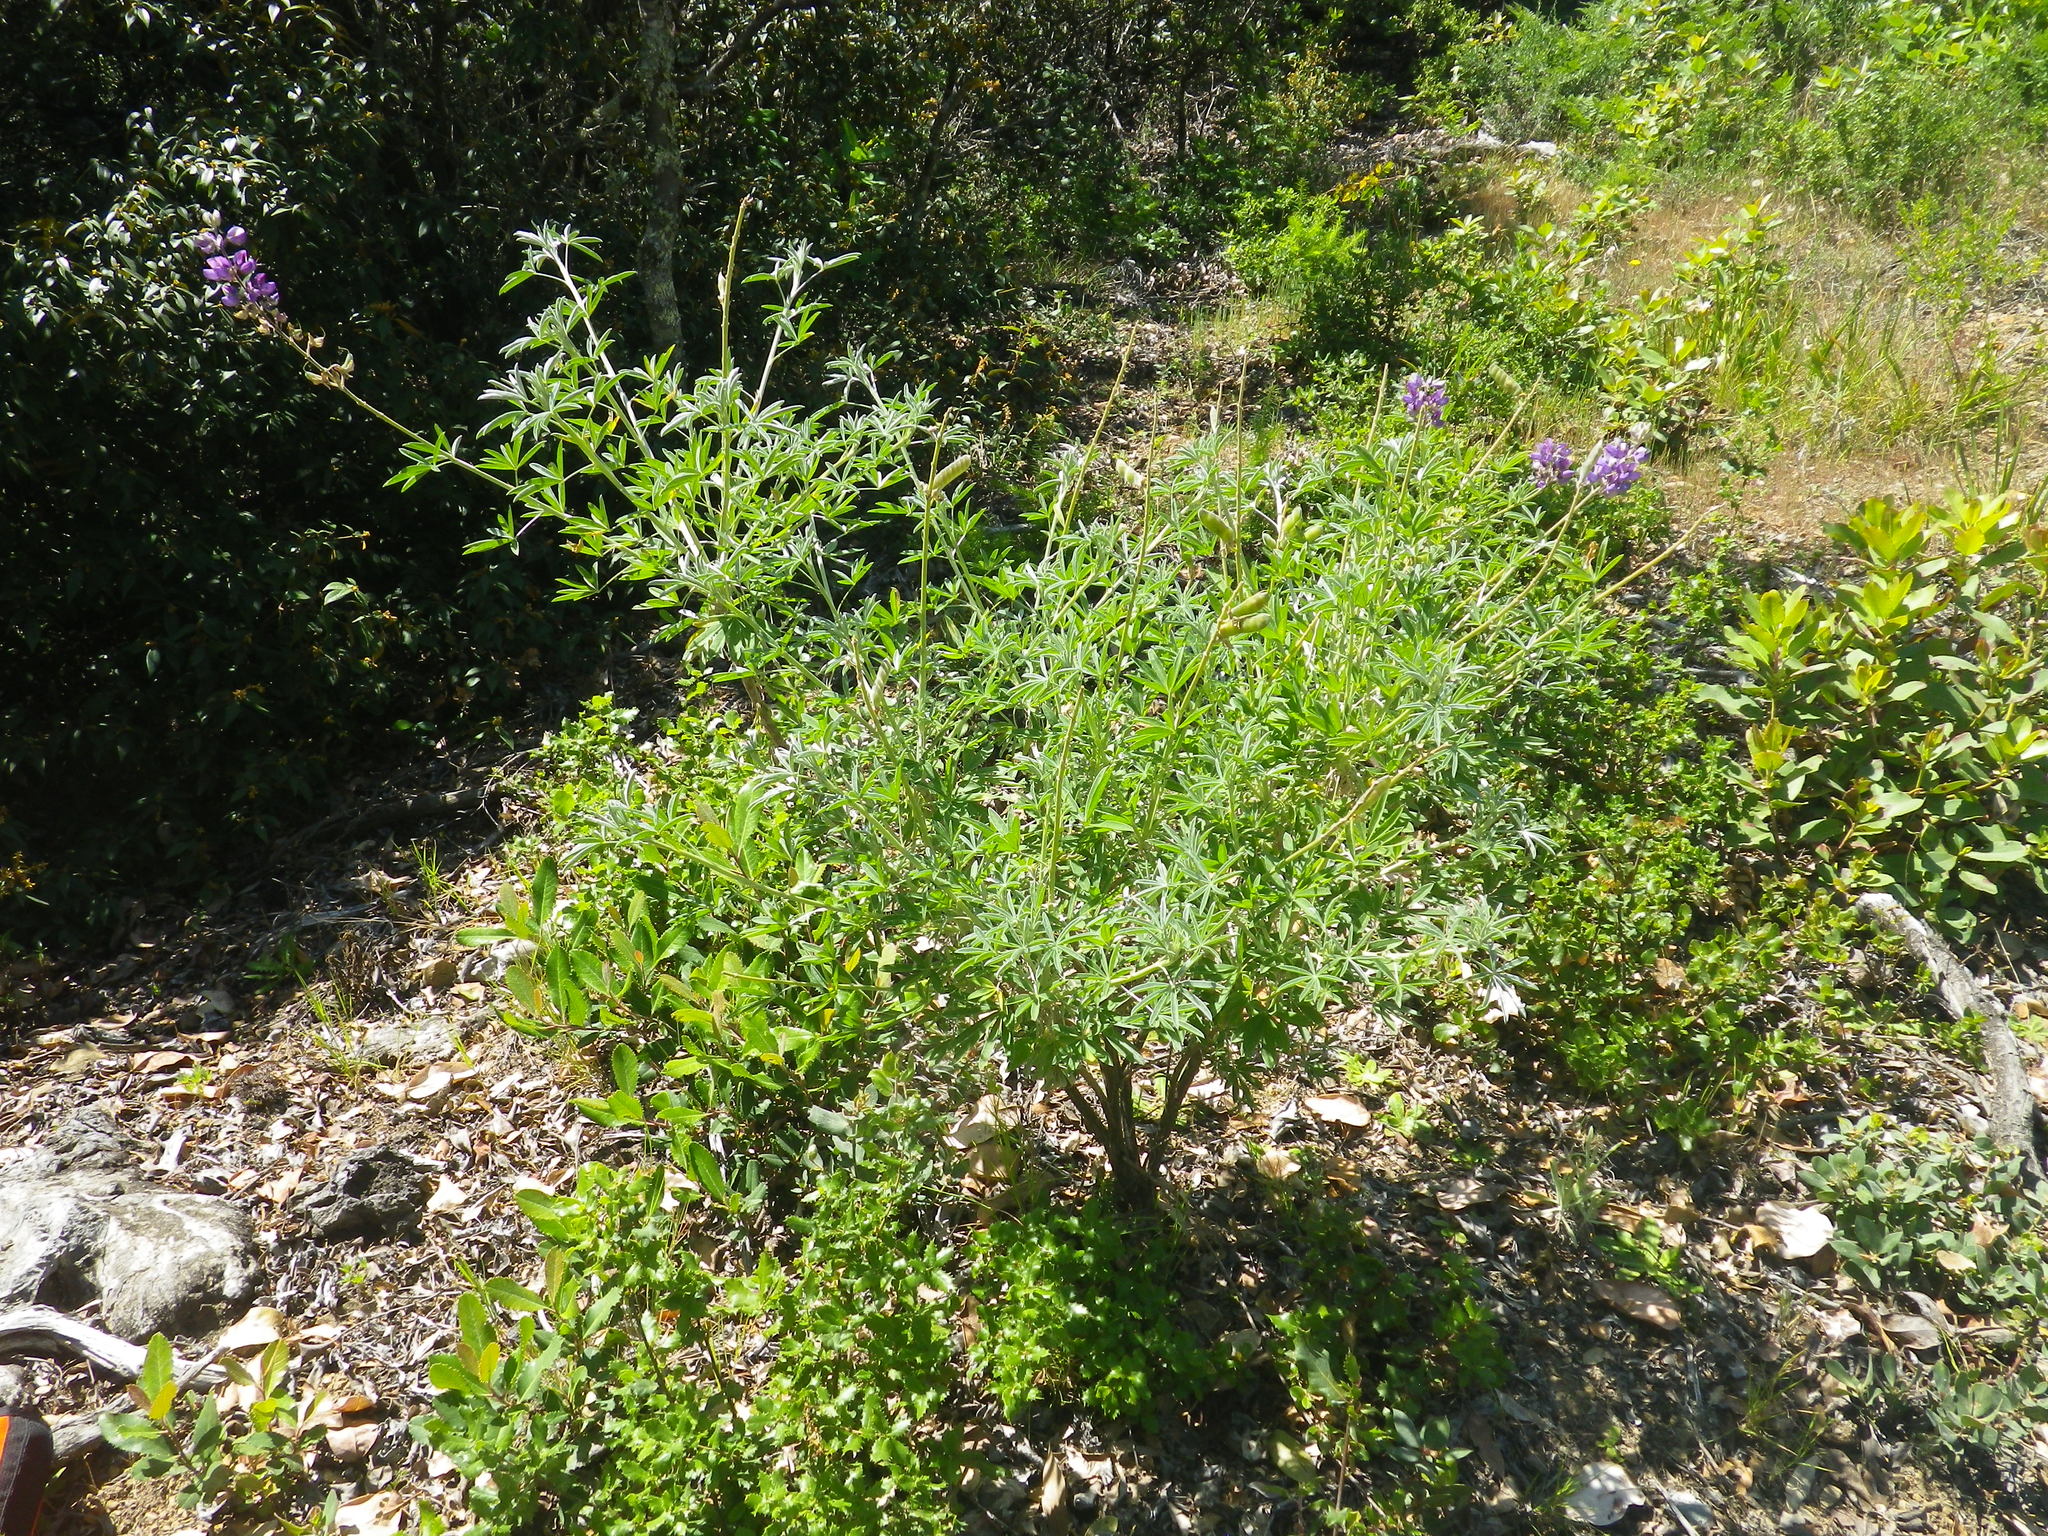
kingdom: Plantae
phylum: Tracheophyta
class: Magnoliopsida
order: Fabales
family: Fabaceae
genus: Lupinus
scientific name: Lupinus albifrons
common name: Foothill lupine
